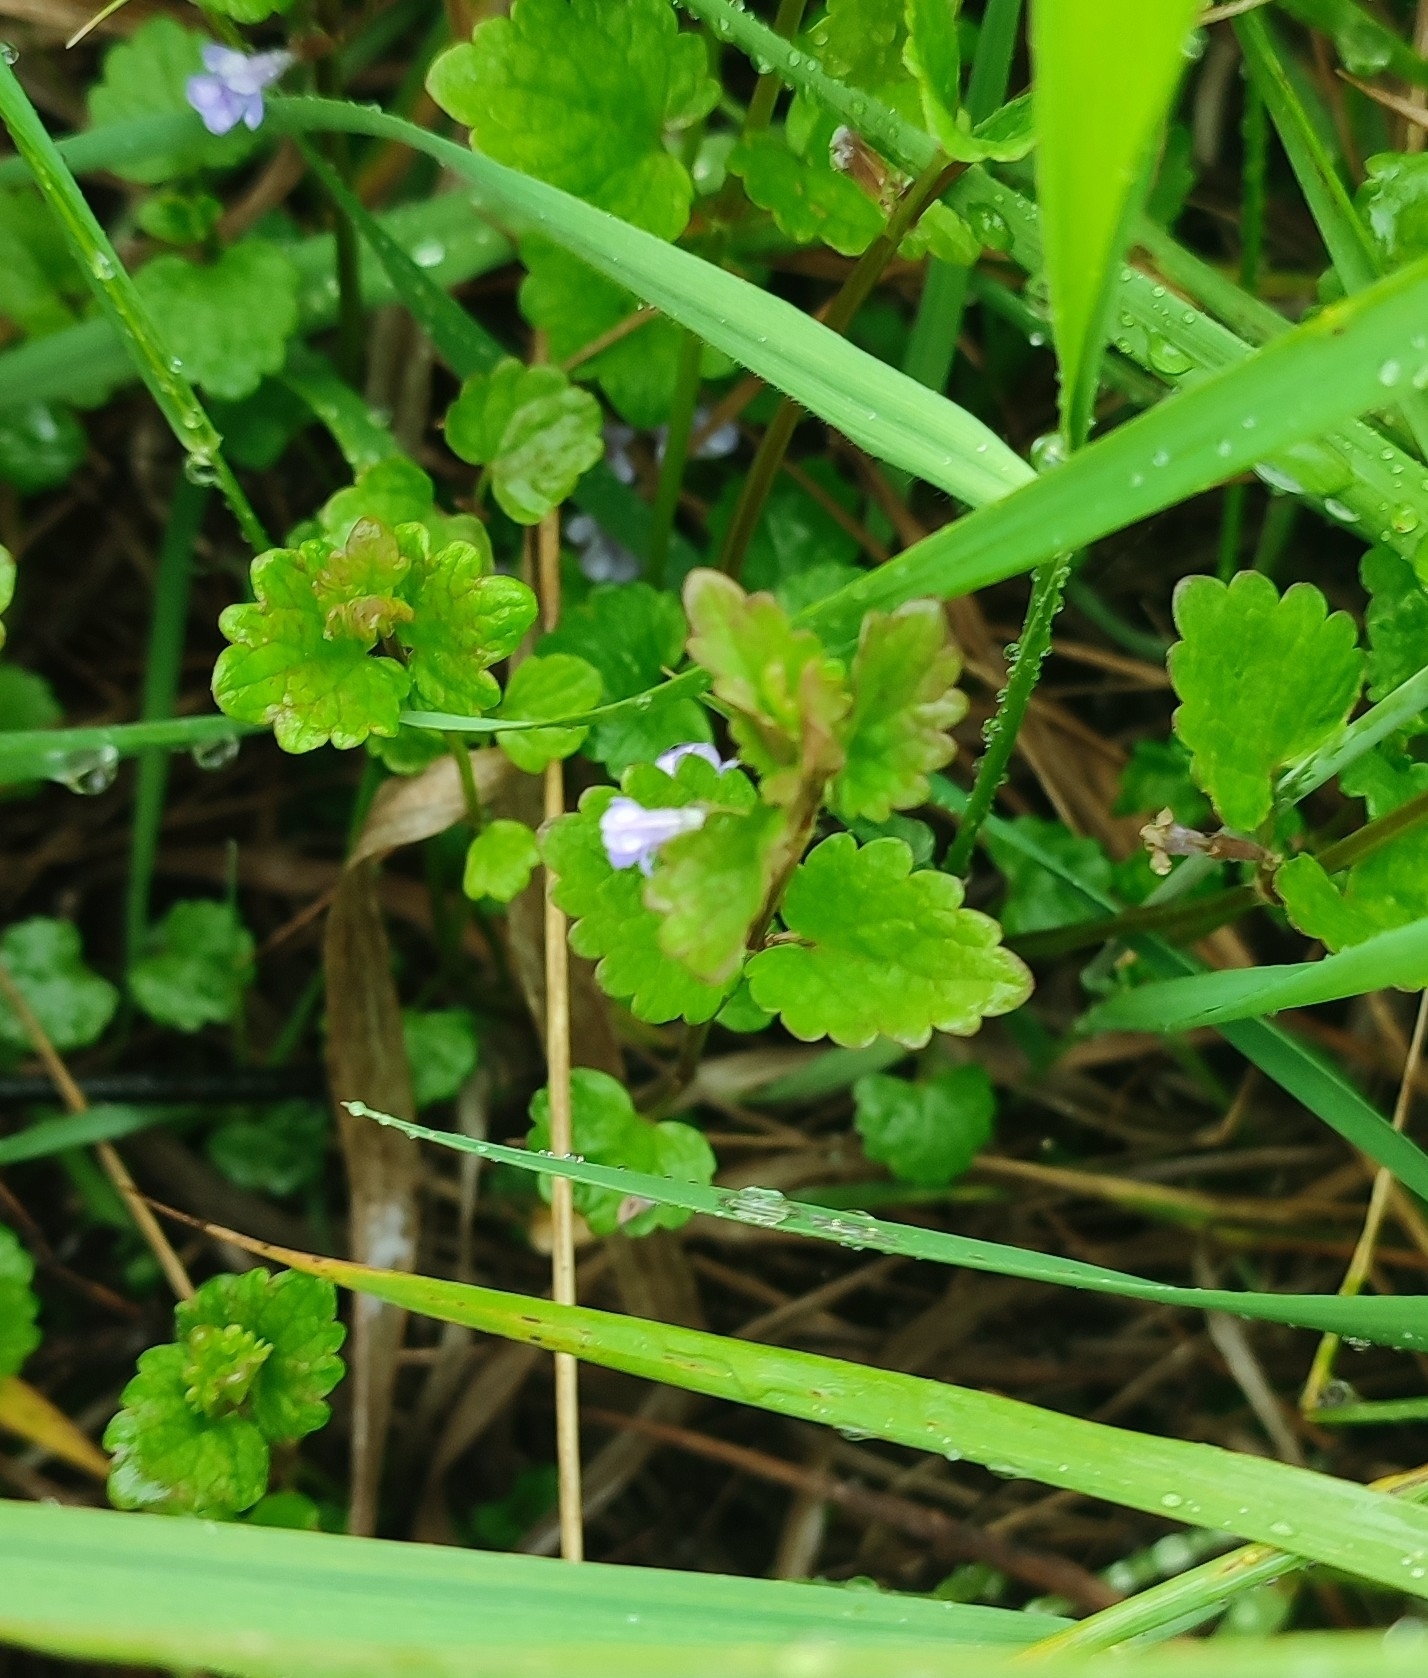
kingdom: Plantae
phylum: Tracheophyta
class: Magnoliopsida
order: Lamiales
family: Lamiaceae
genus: Glechoma
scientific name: Glechoma hederacea
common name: Ground ivy
